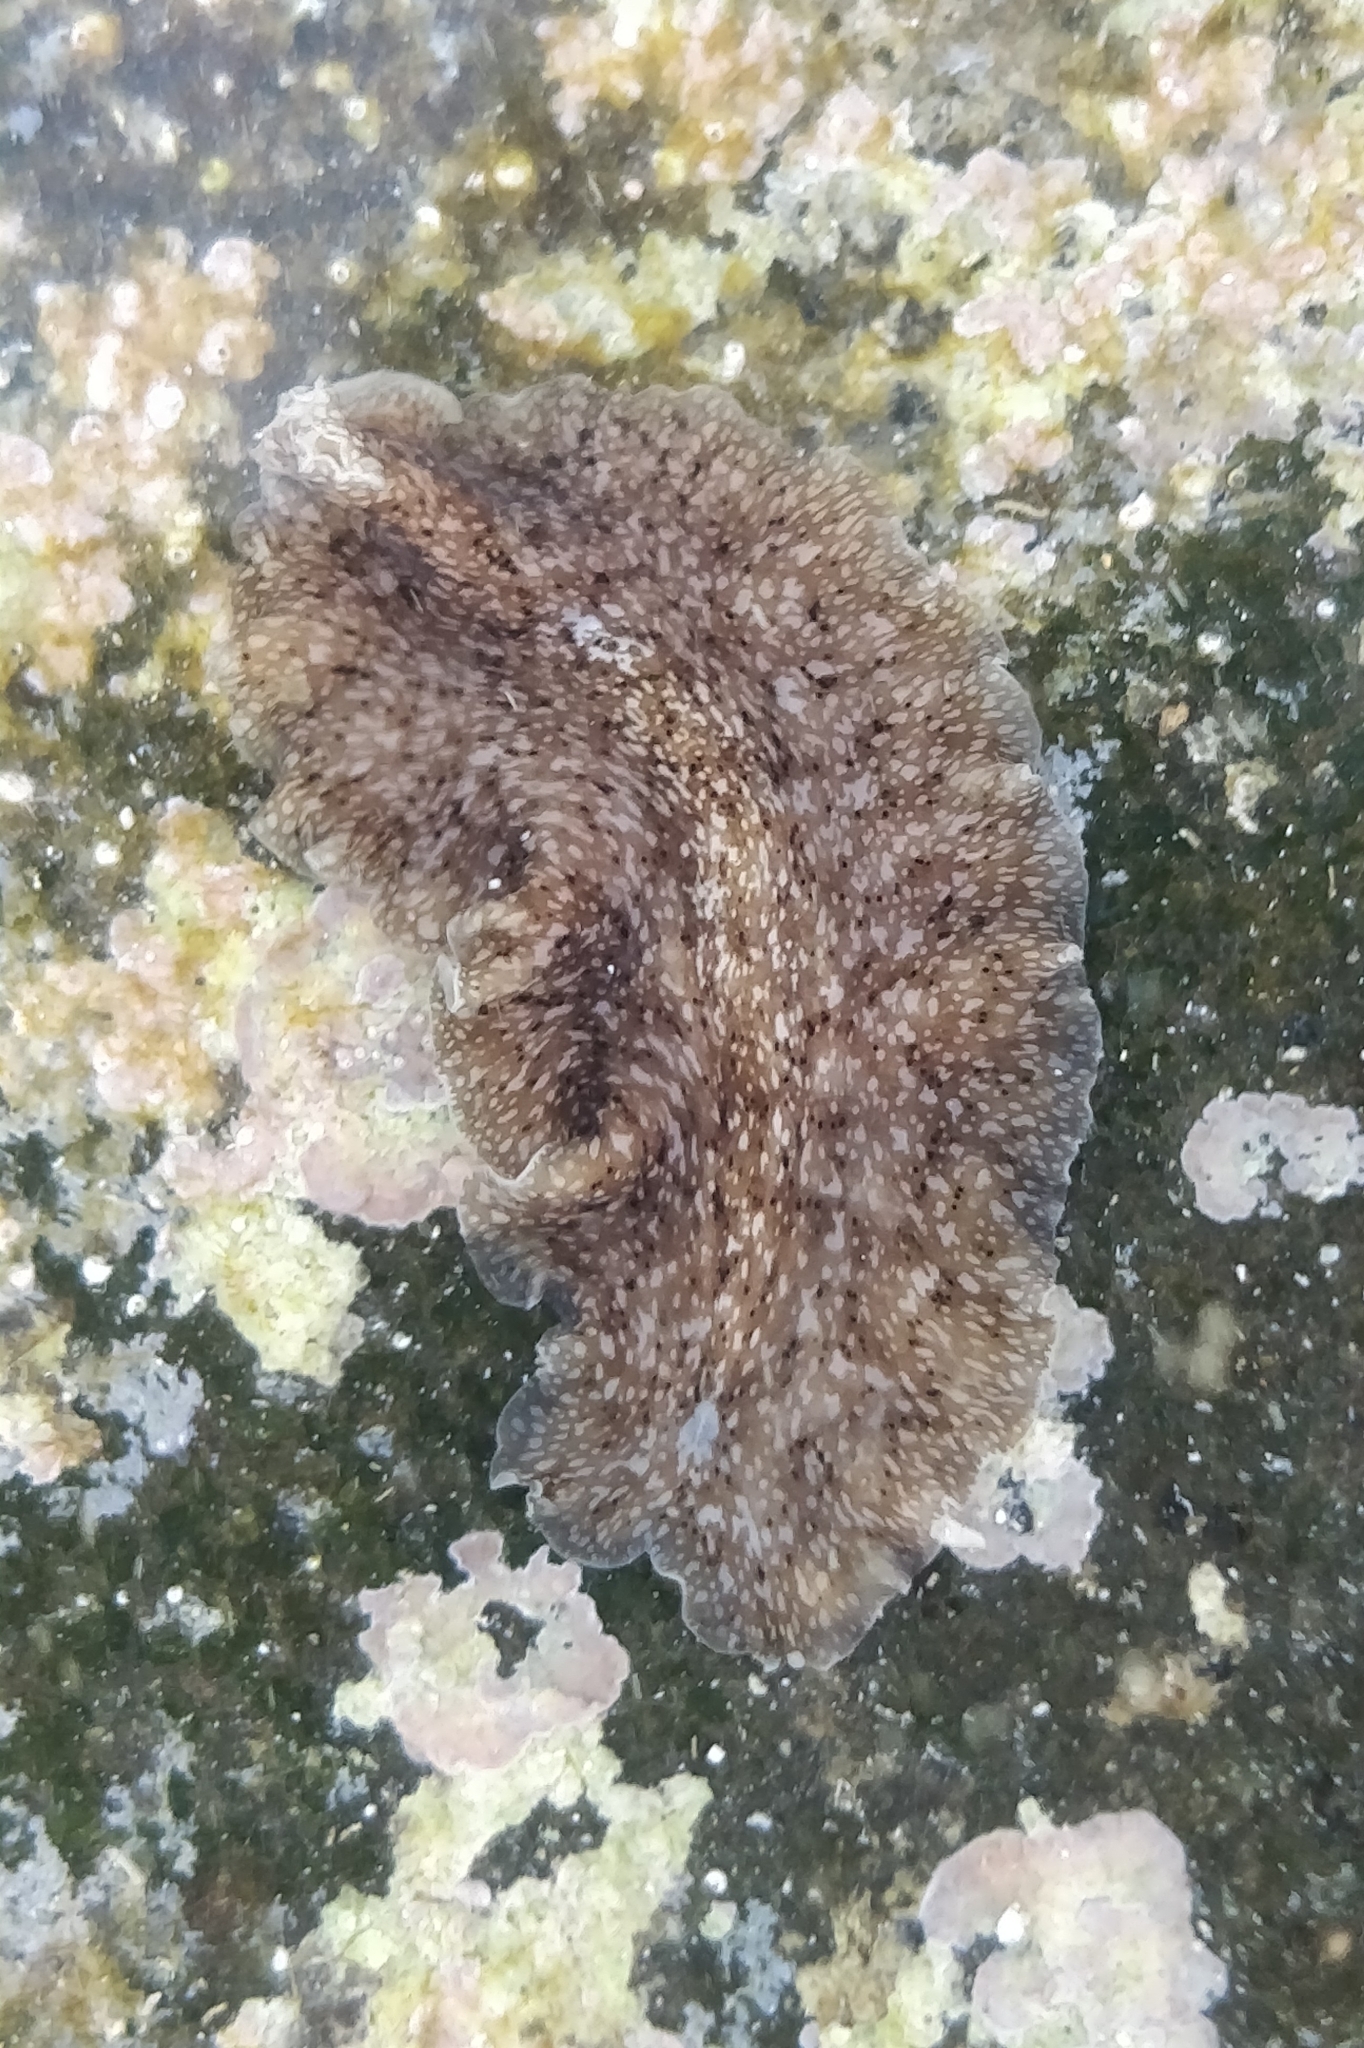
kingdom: Animalia
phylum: Platyhelminthes
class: Turbellaria
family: Pericelidae
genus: Pericelis
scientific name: Pericelis cata
